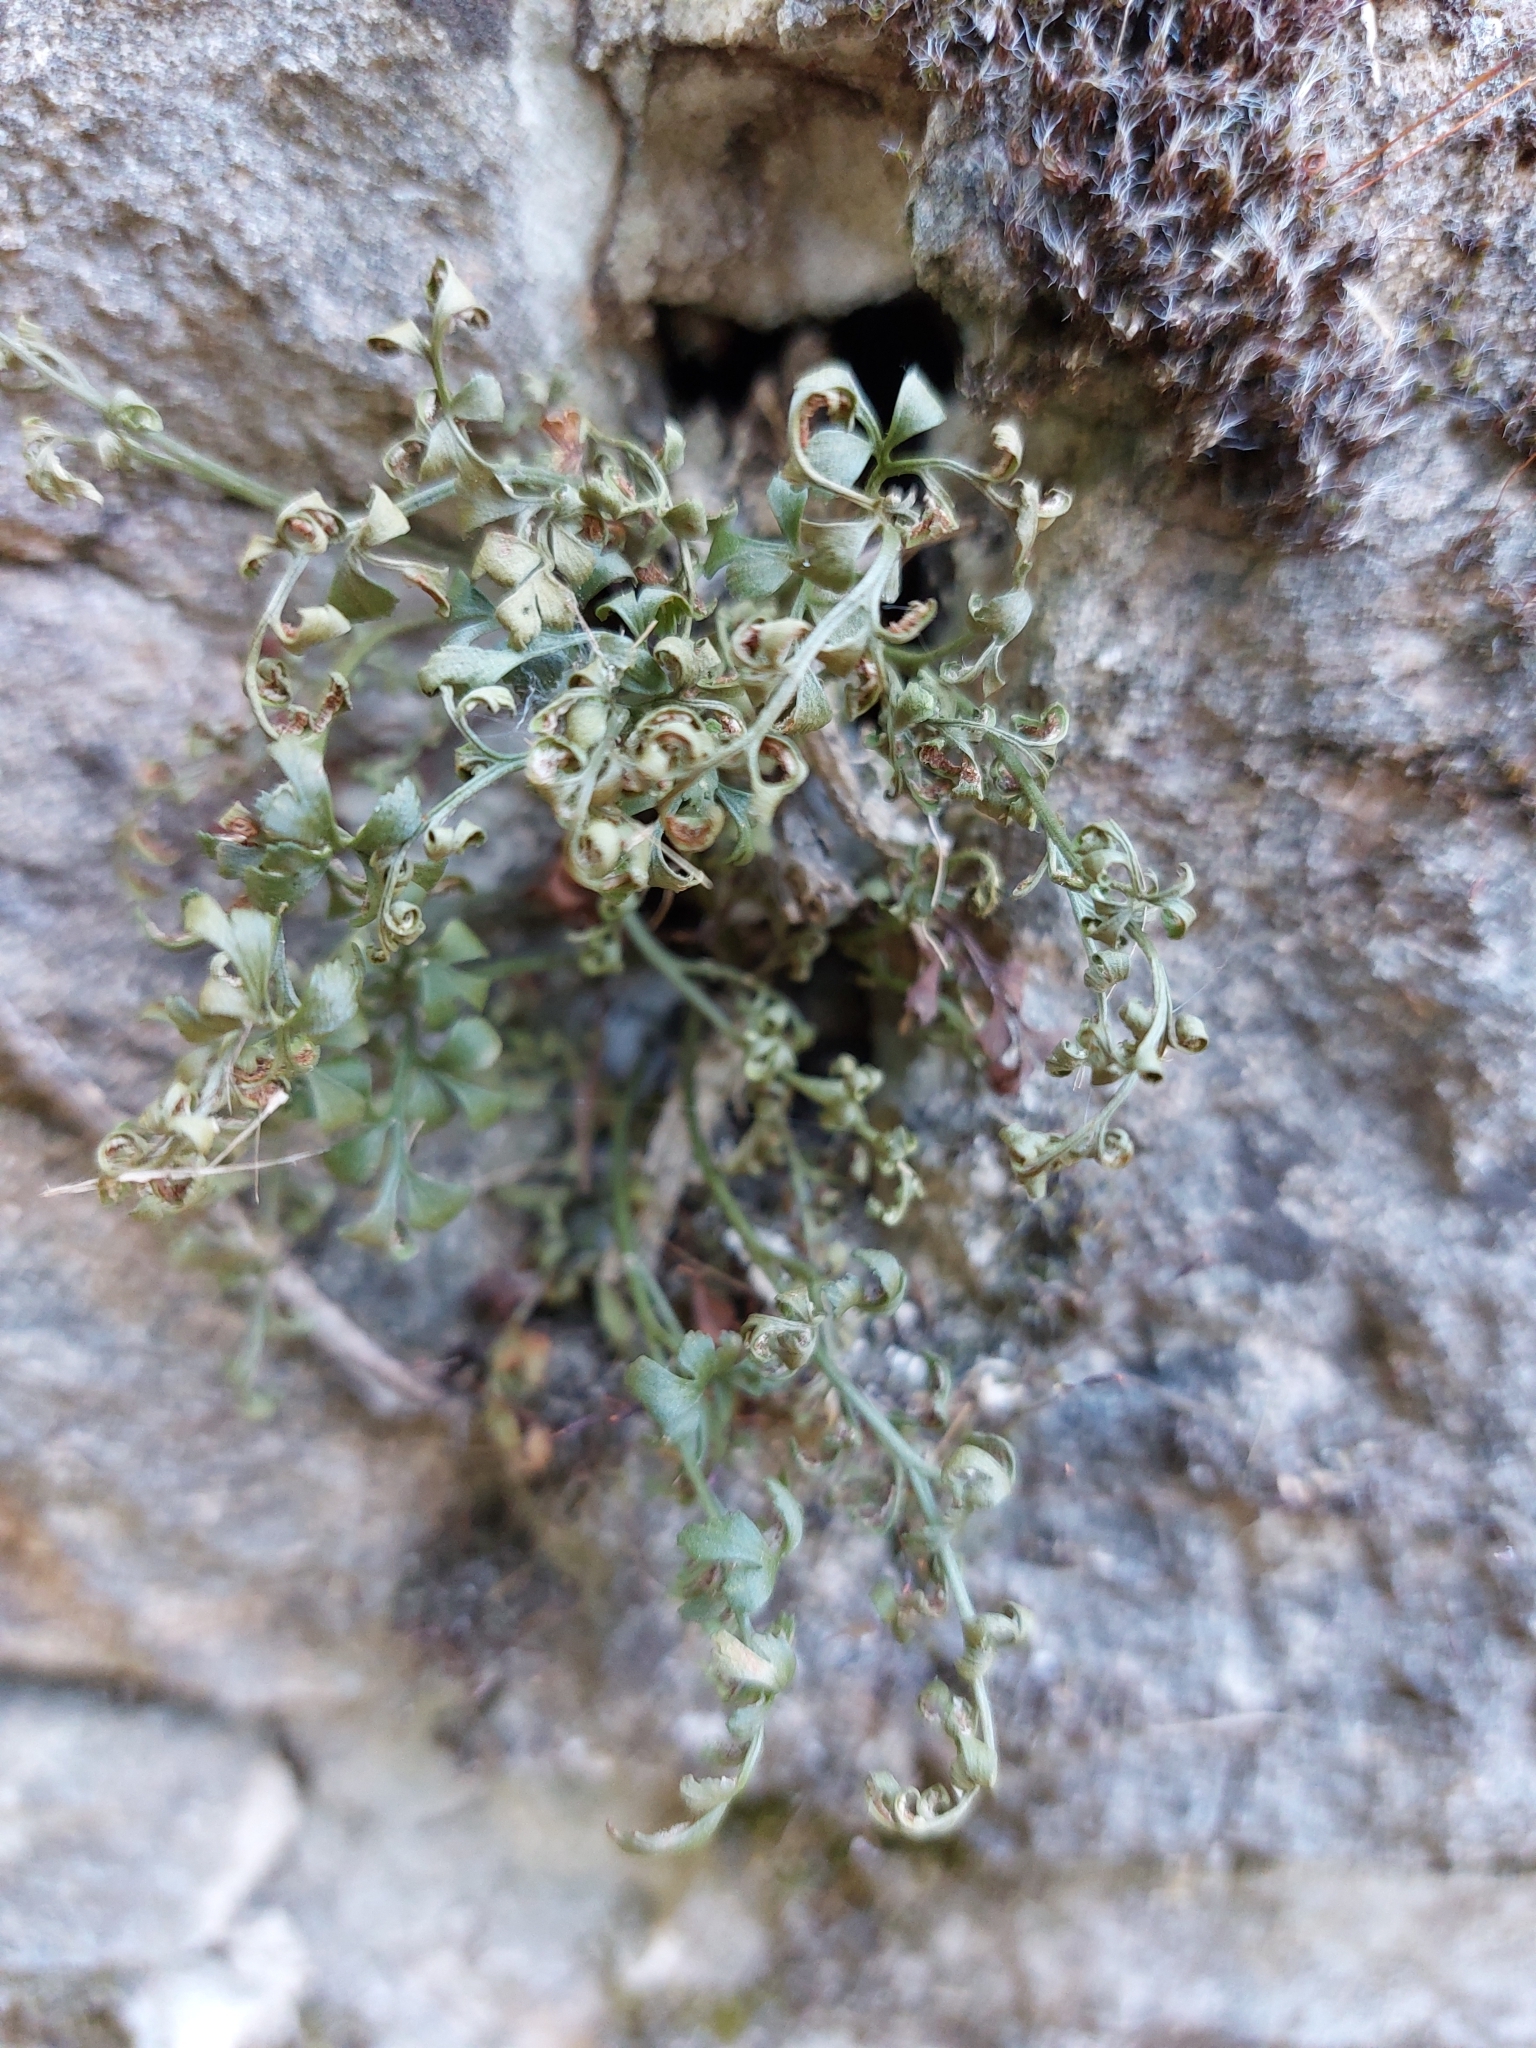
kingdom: Plantae
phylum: Tracheophyta
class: Polypodiopsida
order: Polypodiales
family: Aspleniaceae
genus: Asplenium
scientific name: Asplenium ruta-muraria
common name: Wall-rue
